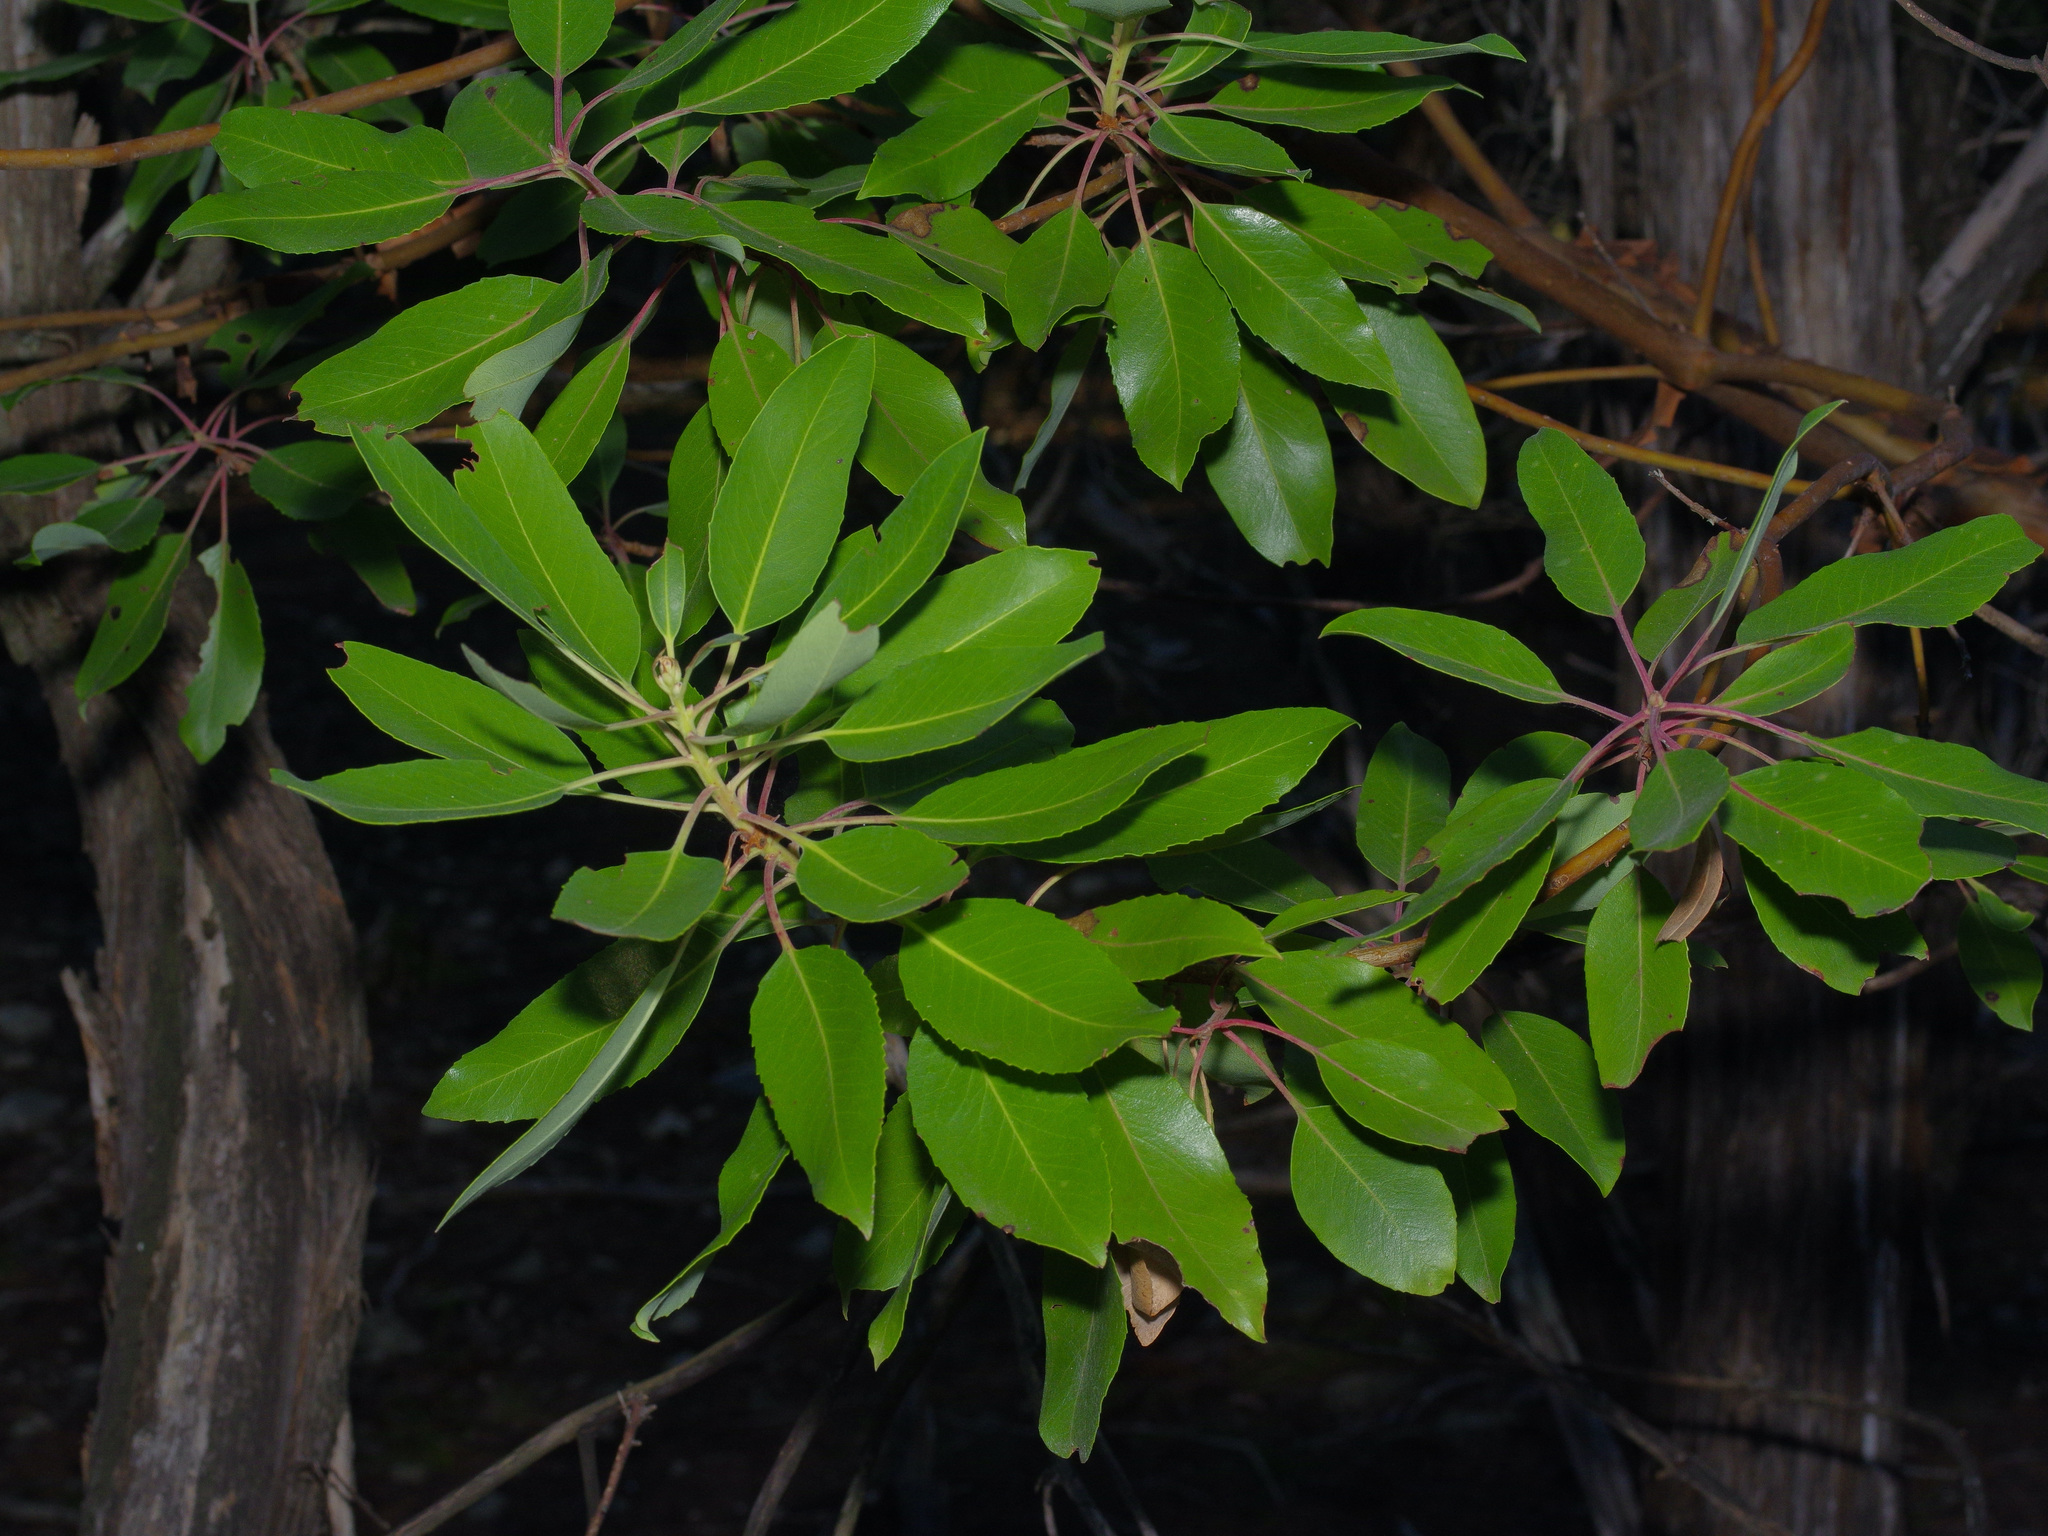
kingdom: Plantae
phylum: Tracheophyta
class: Magnoliopsida
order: Ericales
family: Ericaceae
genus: Arbutus
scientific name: Arbutus xalapensis
